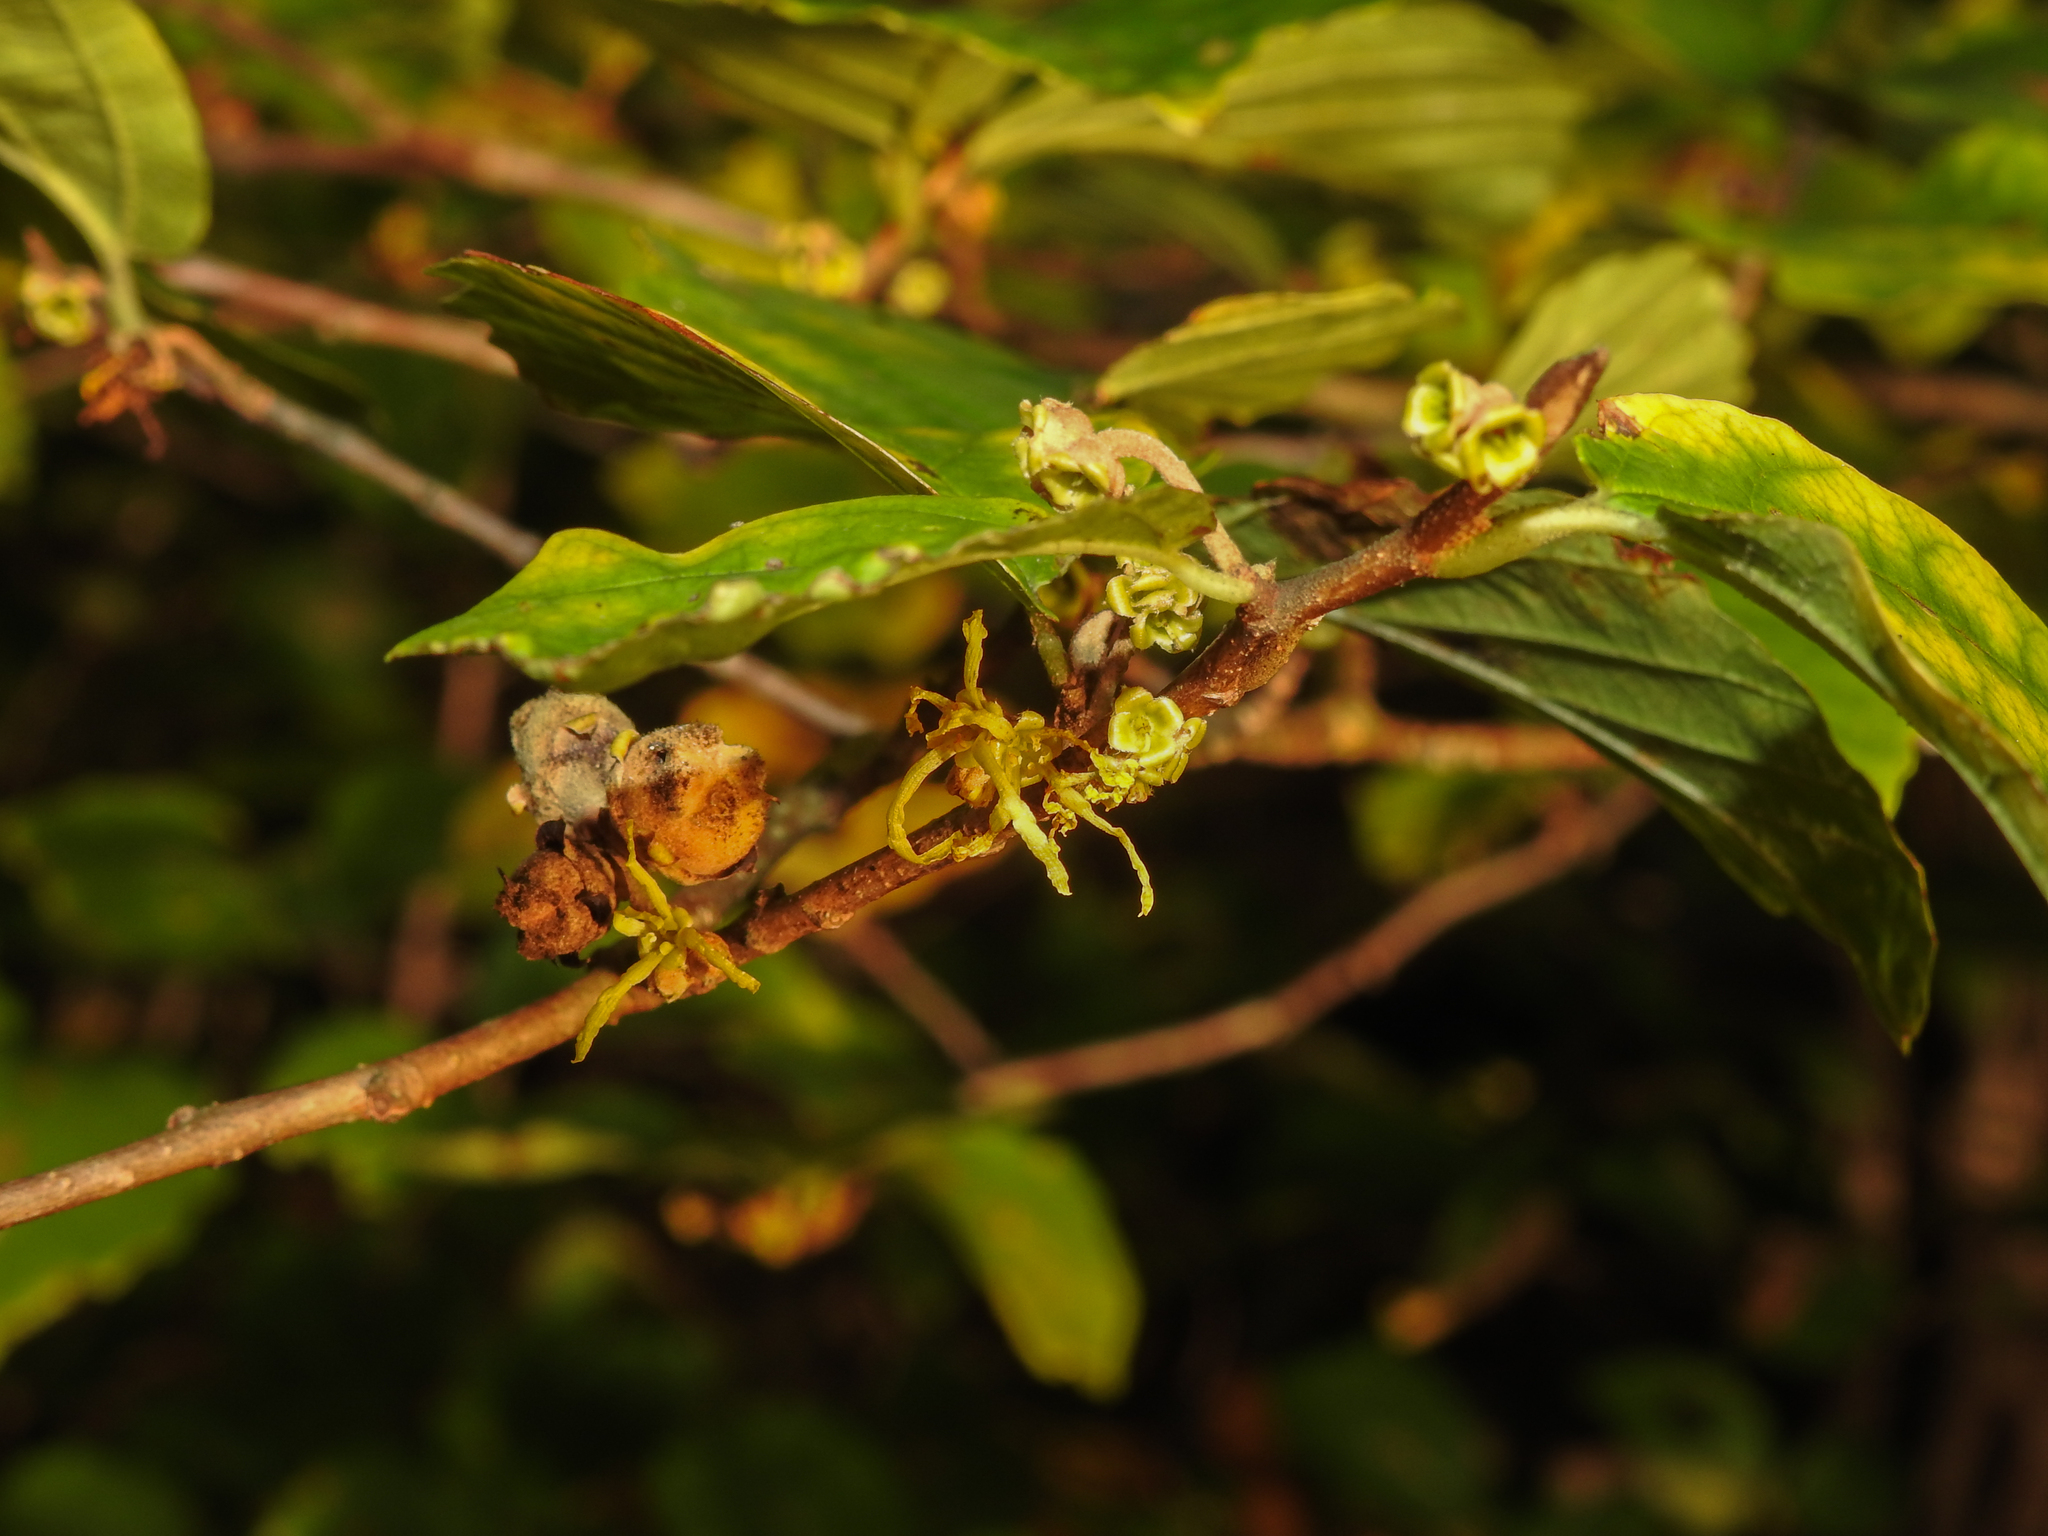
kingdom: Plantae
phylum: Tracheophyta
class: Magnoliopsida
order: Saxifragales
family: Hamamelidaceae
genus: Hamamelis
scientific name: Hamamelis virginiana
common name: Witch-hazel
